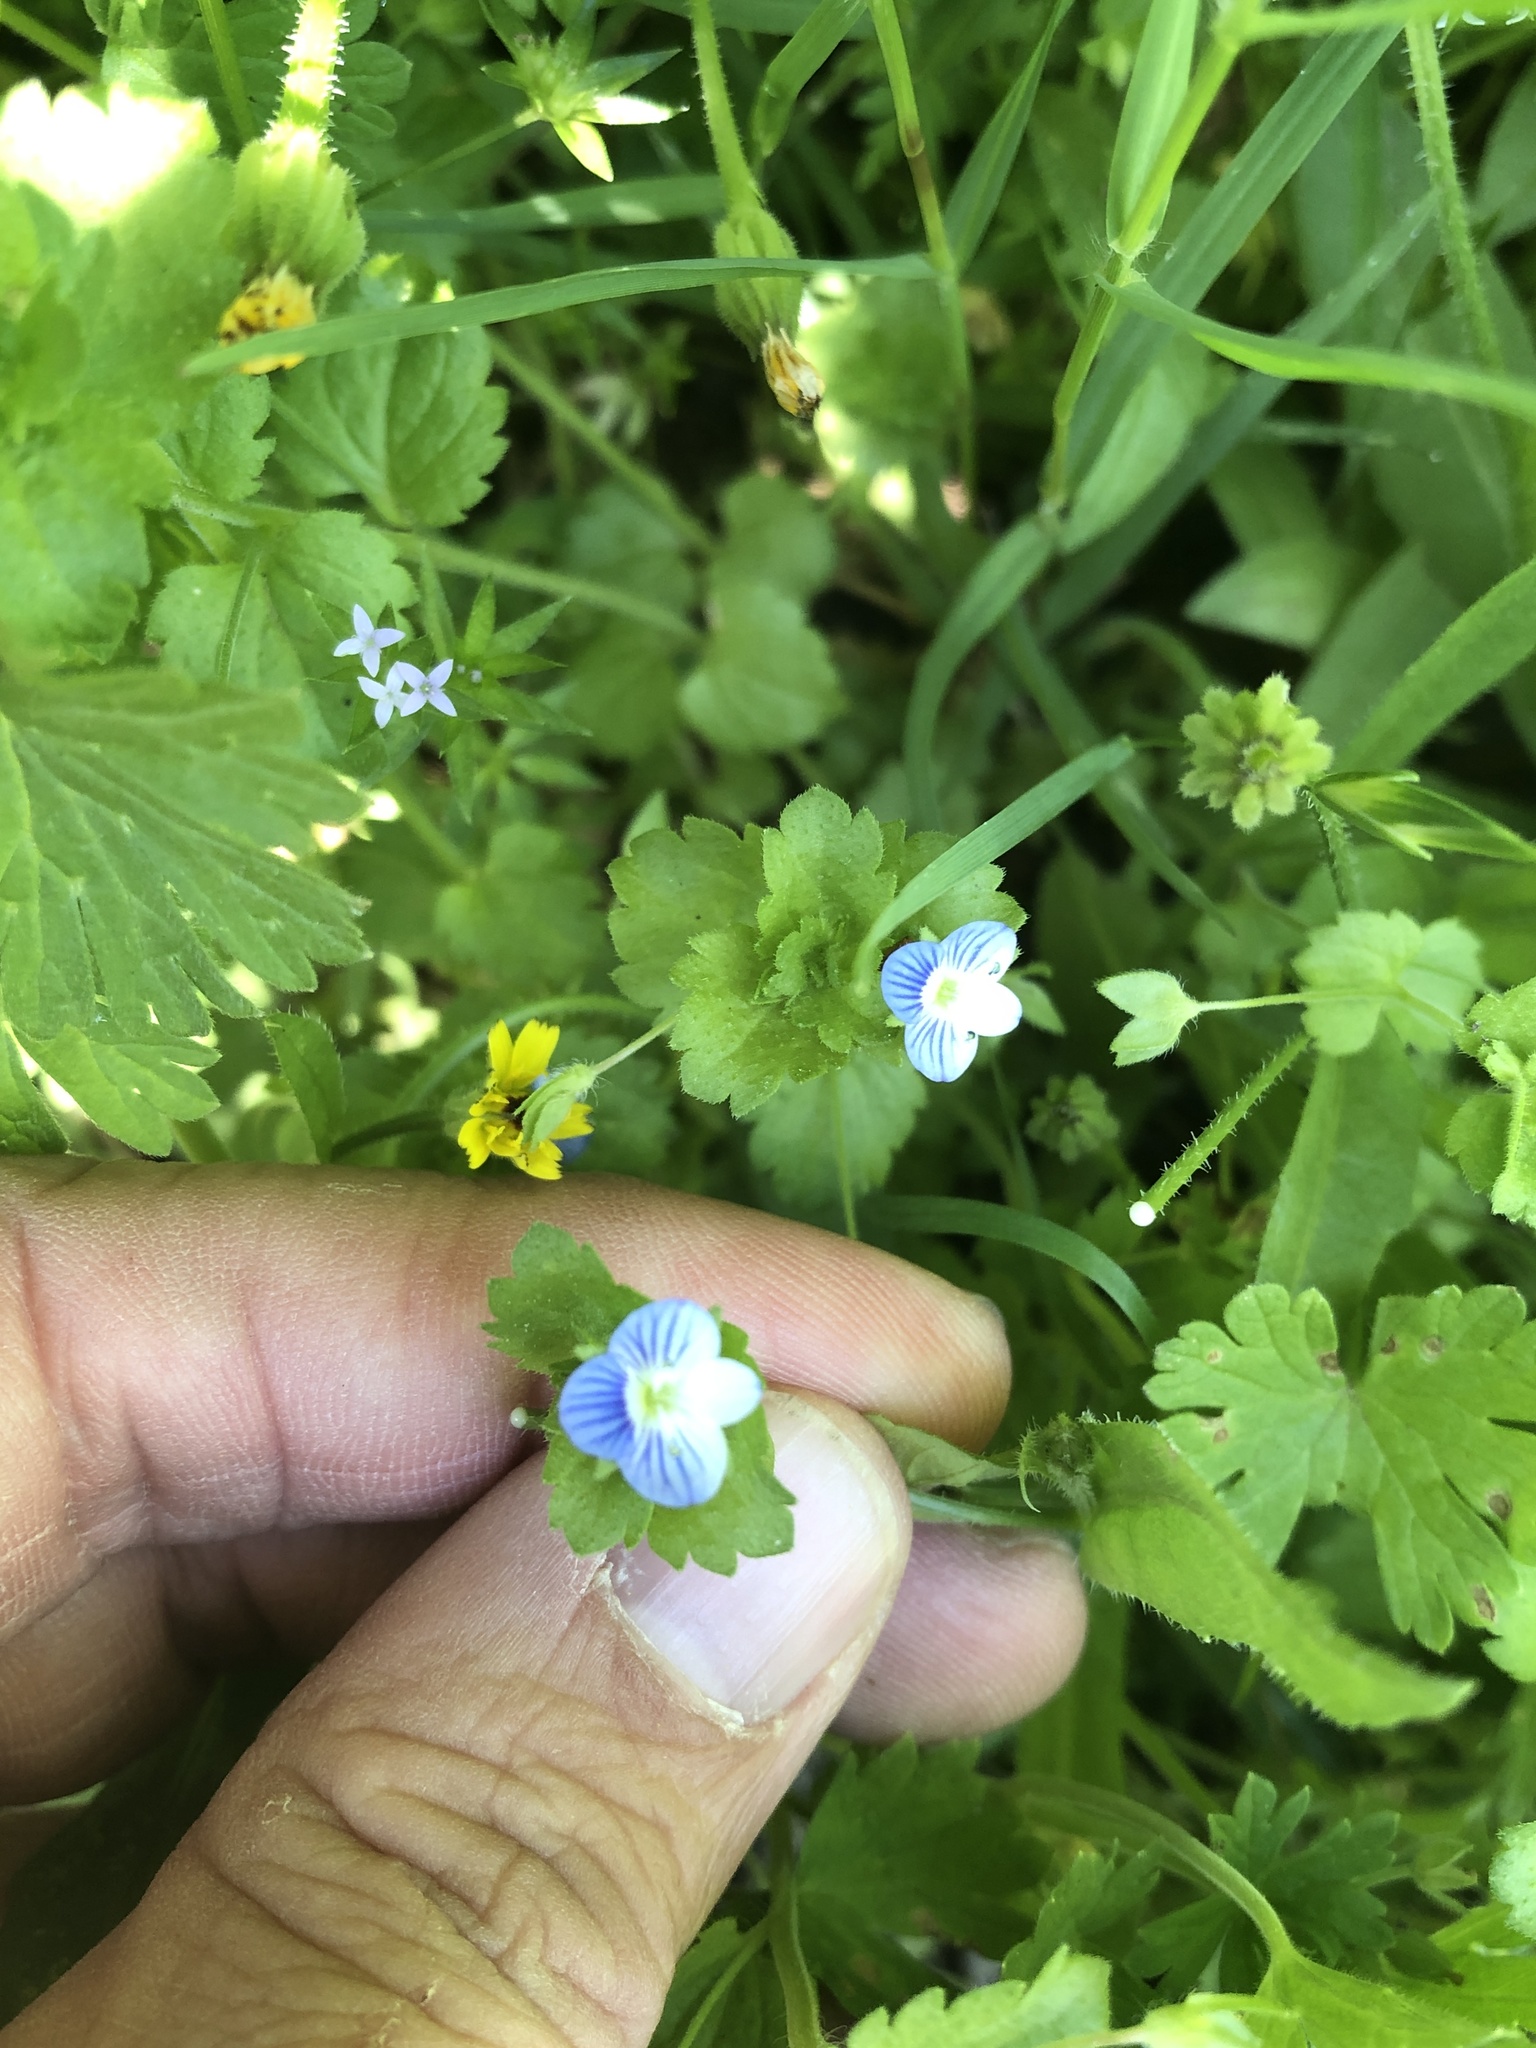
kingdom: Plantae
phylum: Tracheophyta
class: Magnoliopsida
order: Lamiales
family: Plantaginaceae
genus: Veronica
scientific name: Veronica persica
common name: Common field-speedwell
